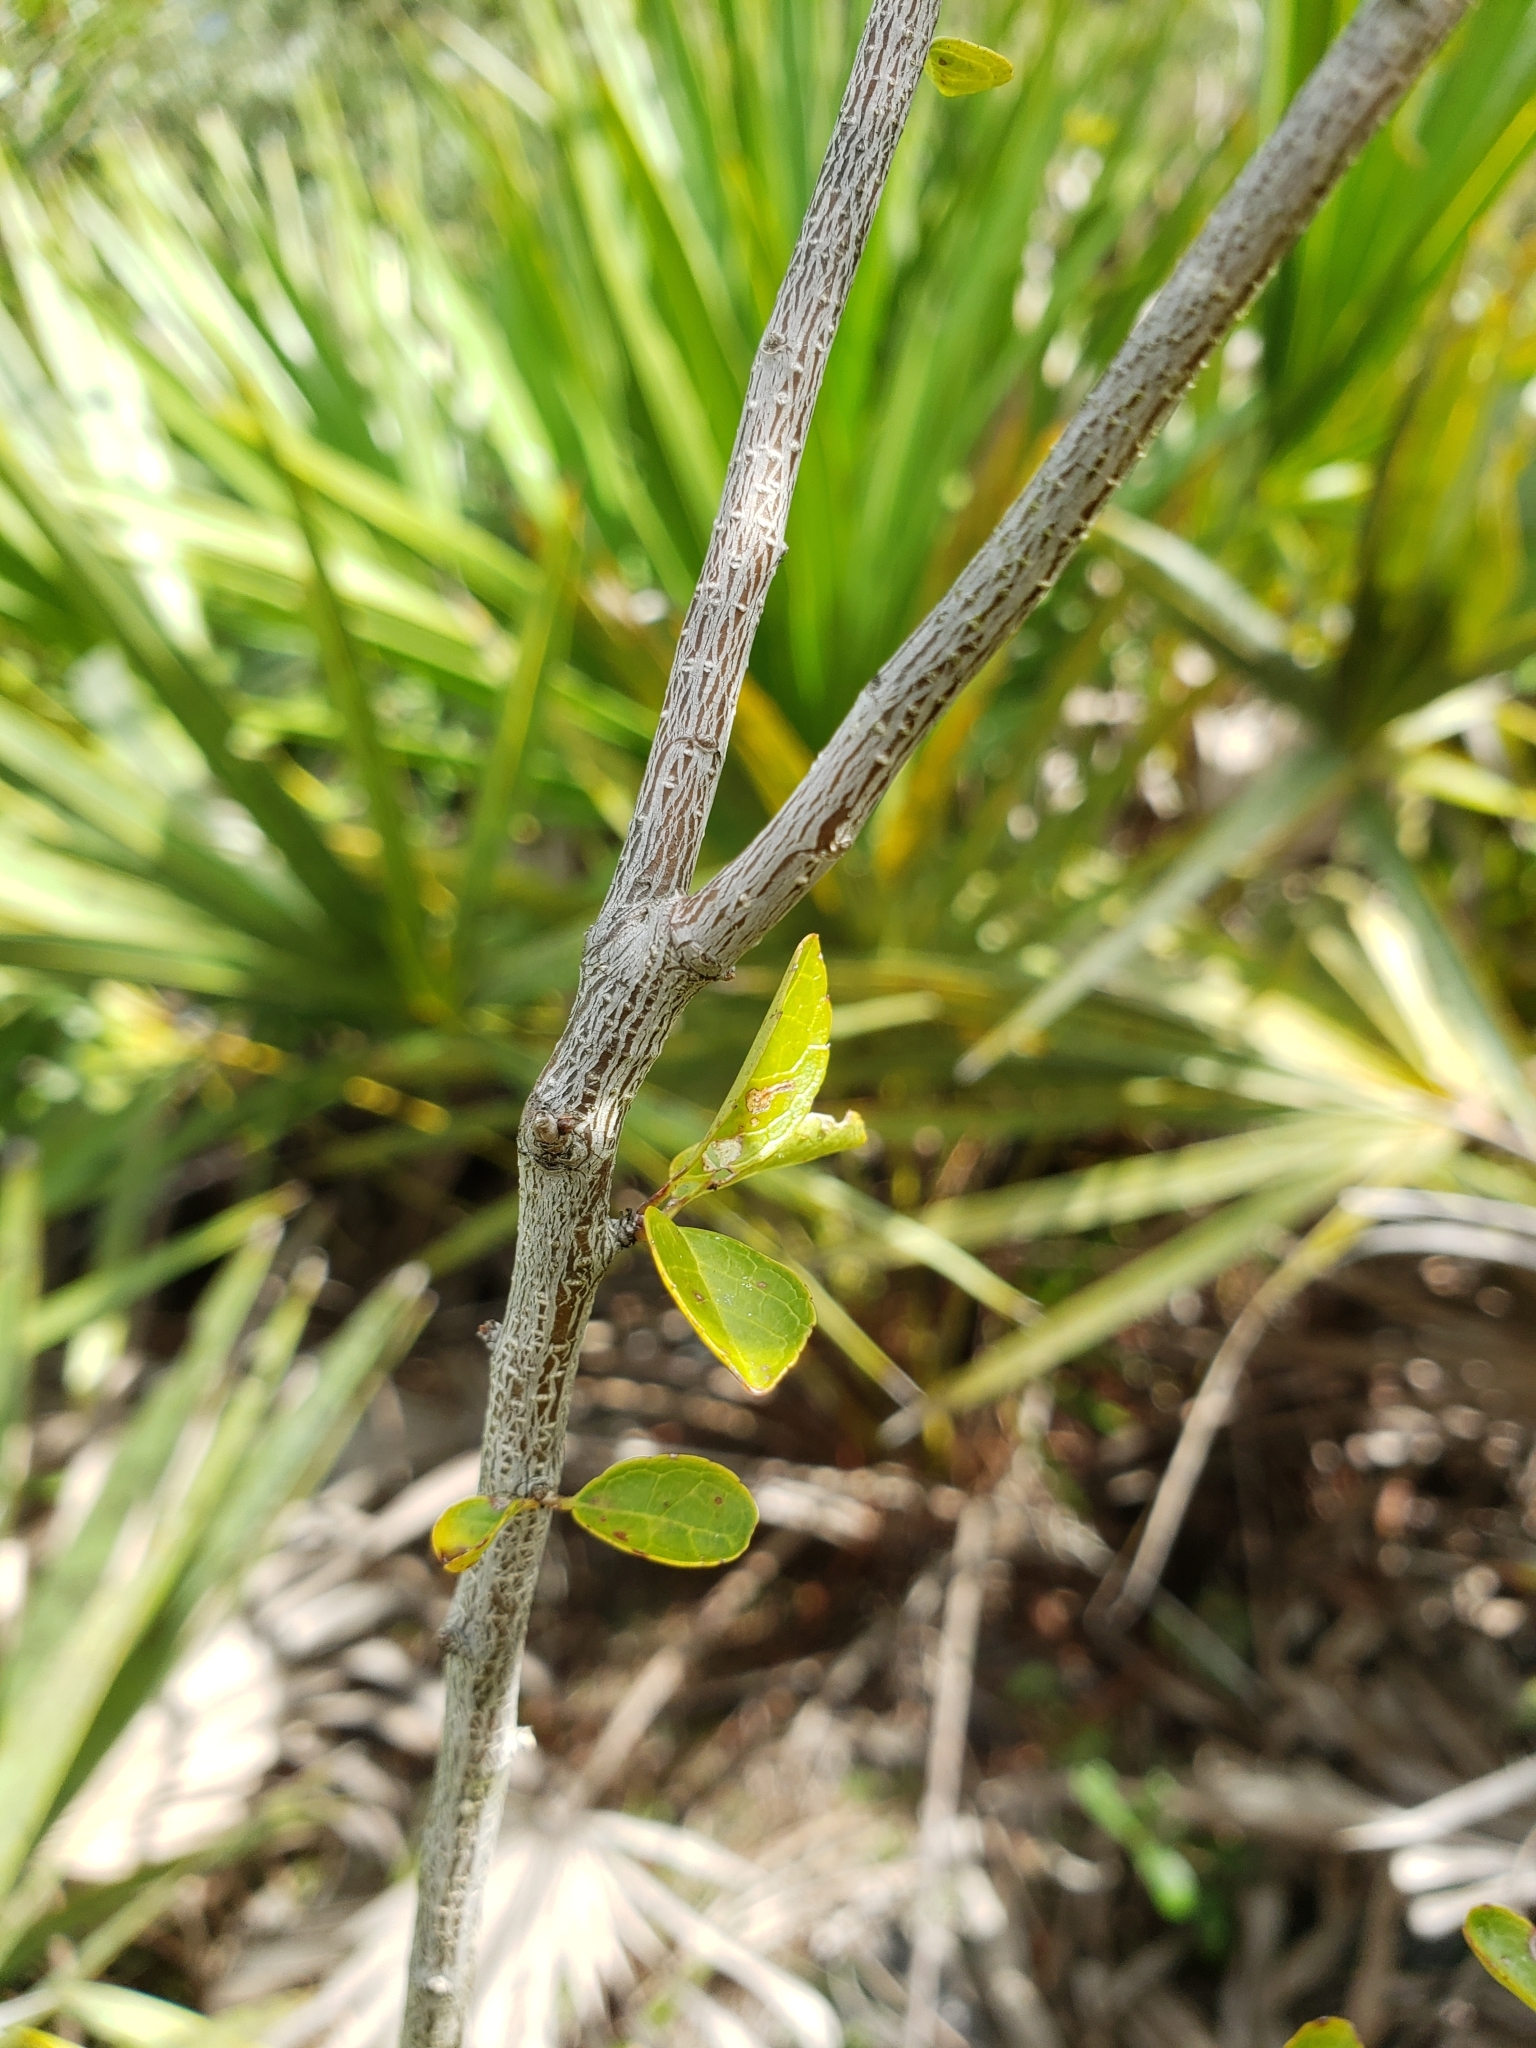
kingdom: Plantae
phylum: Tracheophyta
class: Magnoliopsida
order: Aquifoliales
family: Aquifoliaceae
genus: Ilex
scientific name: Ilex ambigua
